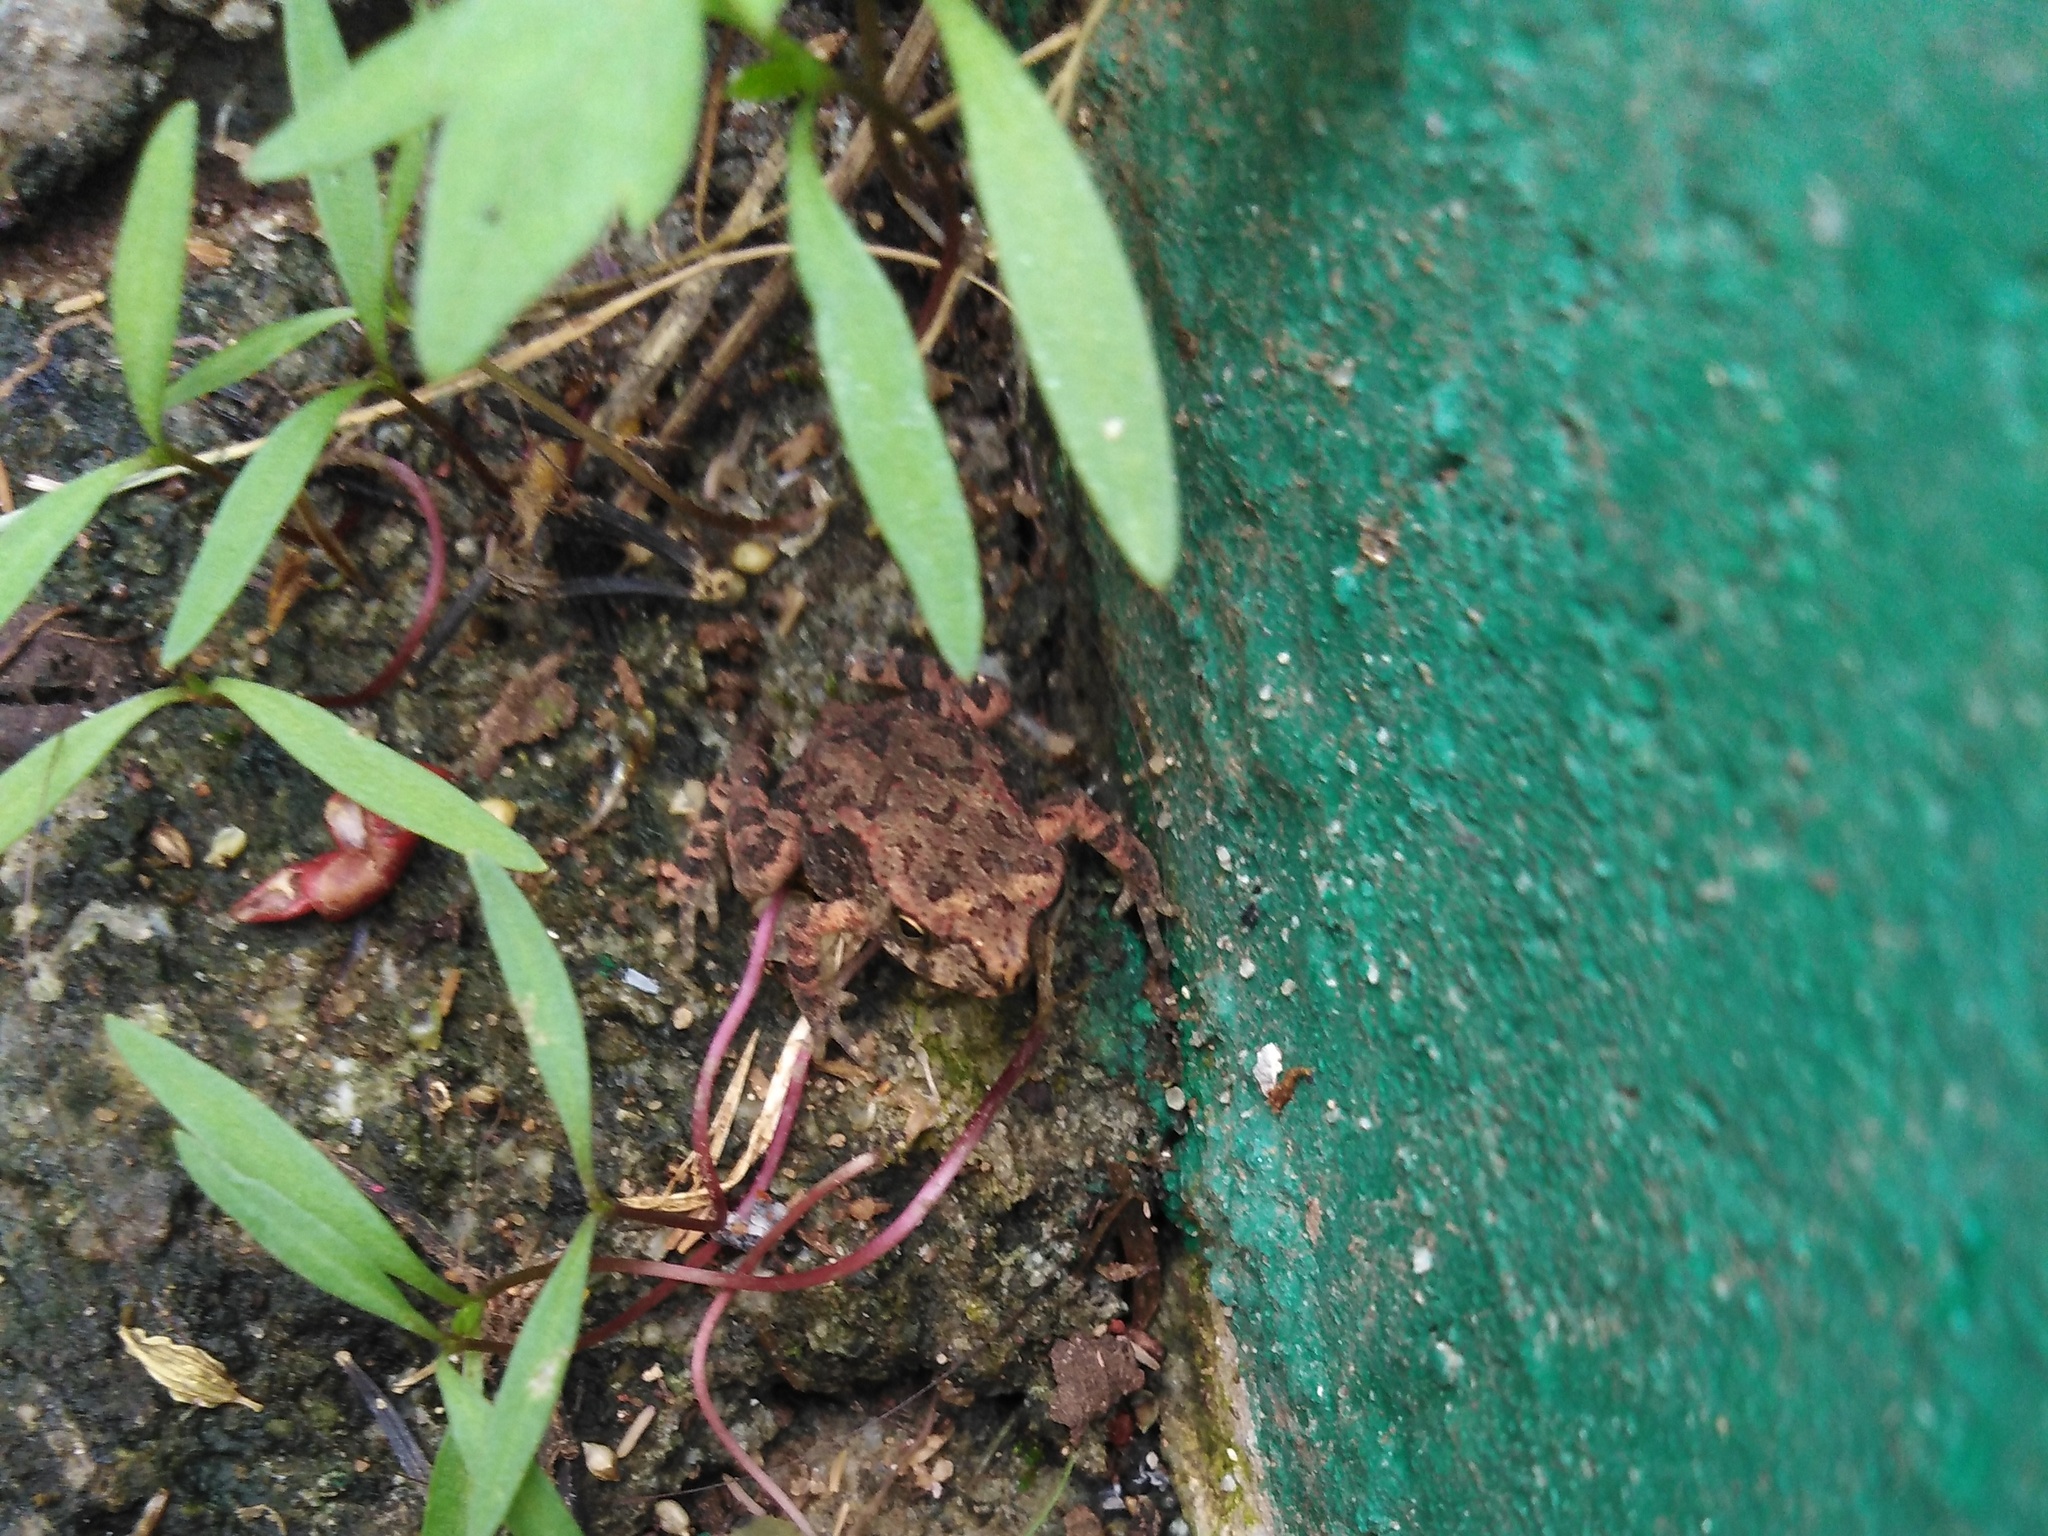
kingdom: Animalia
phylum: Chordata
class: Amphibia
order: Anura
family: Bufonidae
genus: Duttaphrynus
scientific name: Duttaphrynus melanostictus
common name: Common sunda toad
